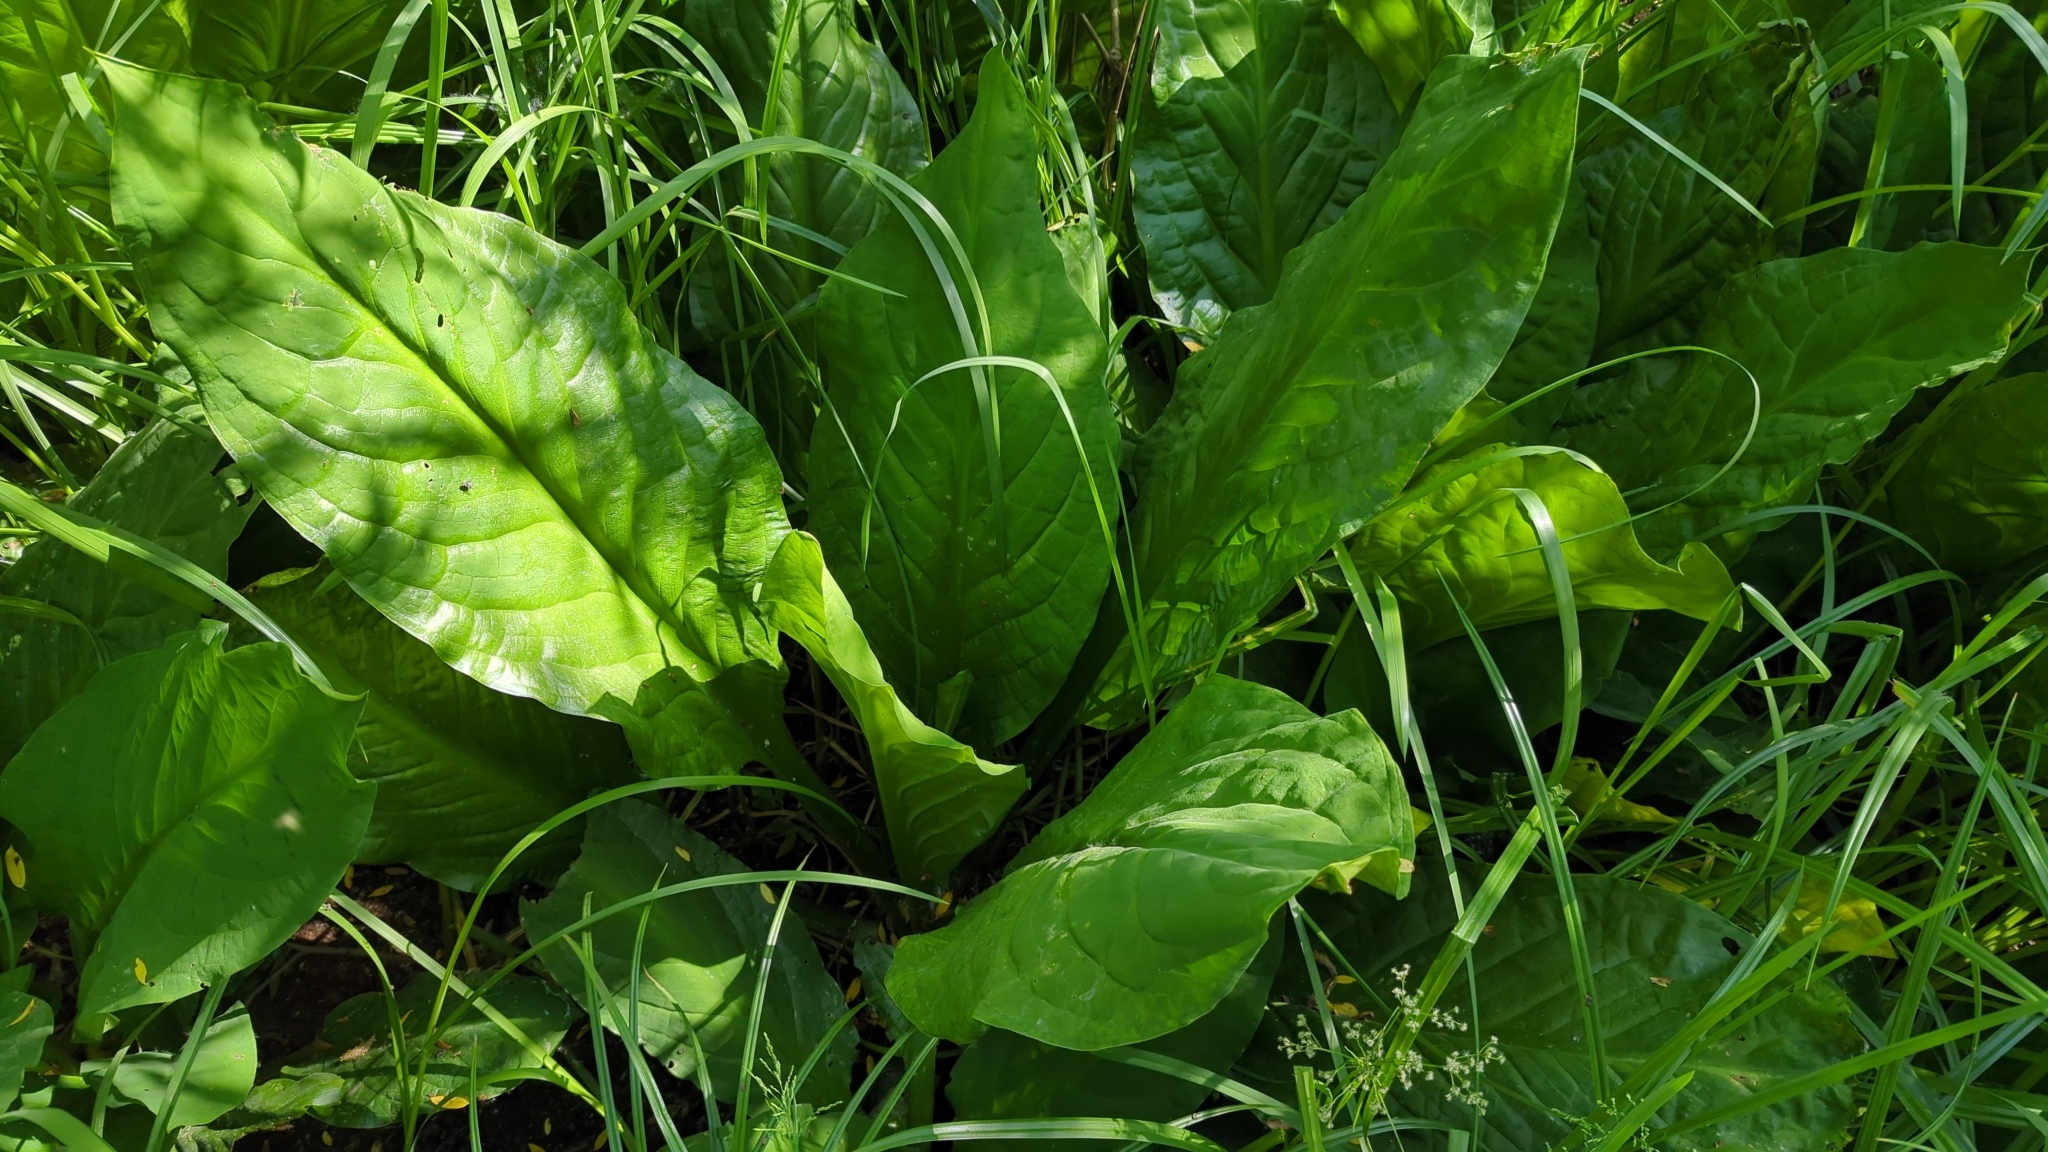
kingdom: Plantae
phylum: Tracheophyta
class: Liliopsida
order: Alismatales
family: Araceae
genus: Lysichiton
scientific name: Lysichiton americanus
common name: American skunk cabbage
